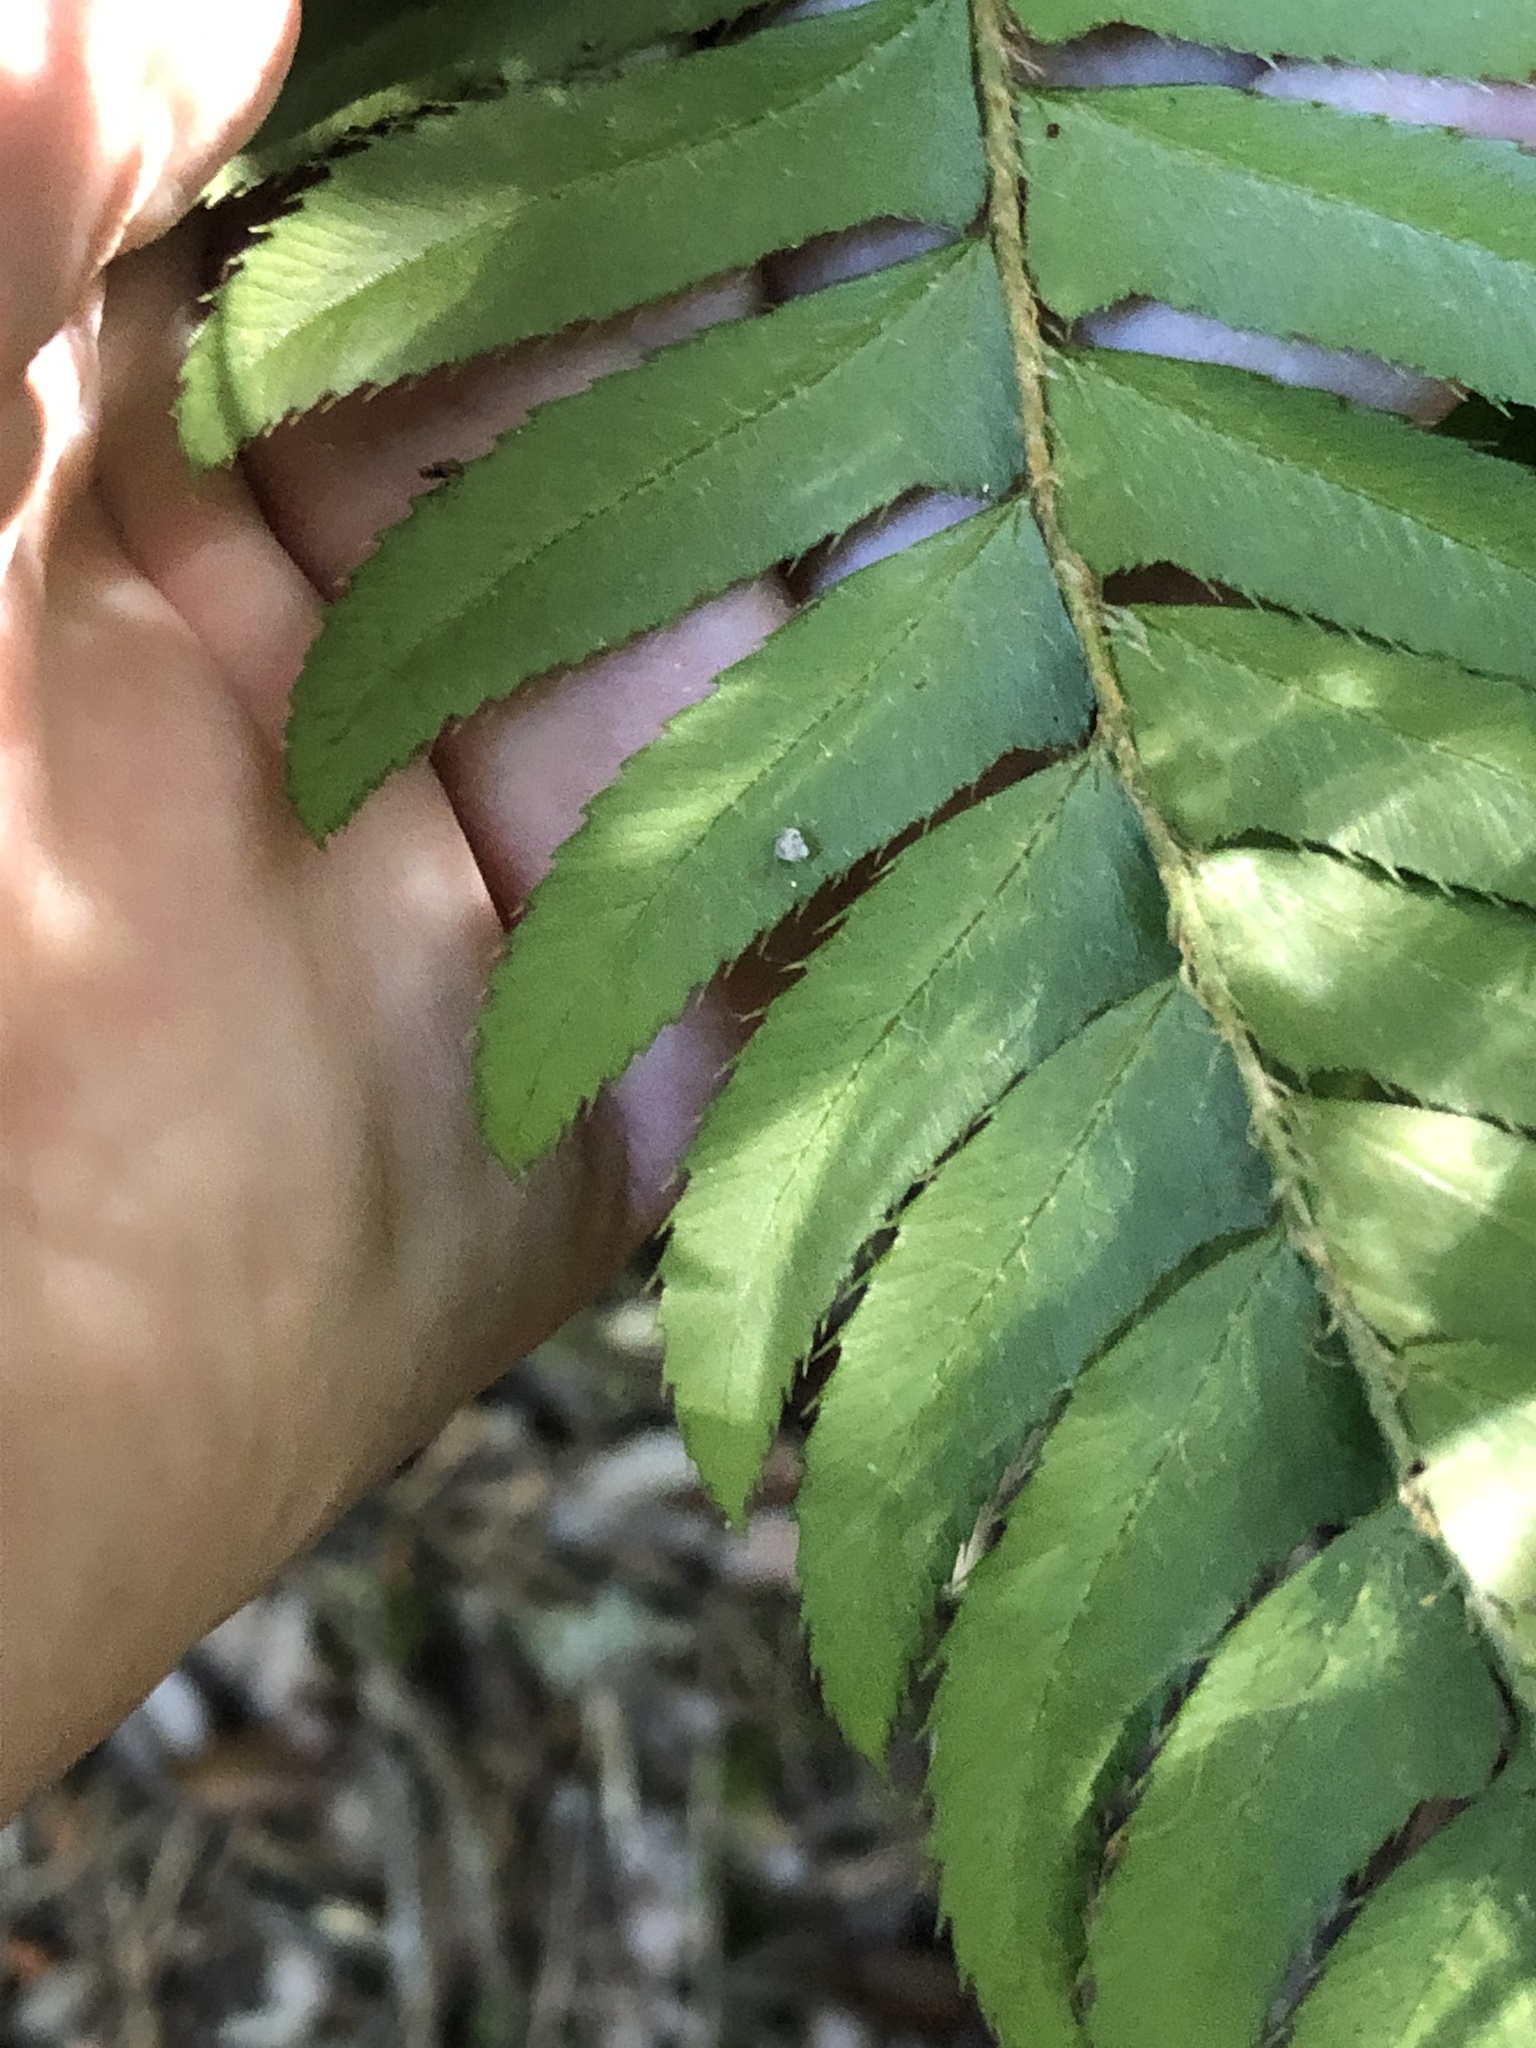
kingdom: Plantae
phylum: Tracheophyta
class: Polypodiopsida
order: Polypodiales
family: Dryopteridaceae
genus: Polystichum
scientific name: Polystichum munitum
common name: Western sword-fern
